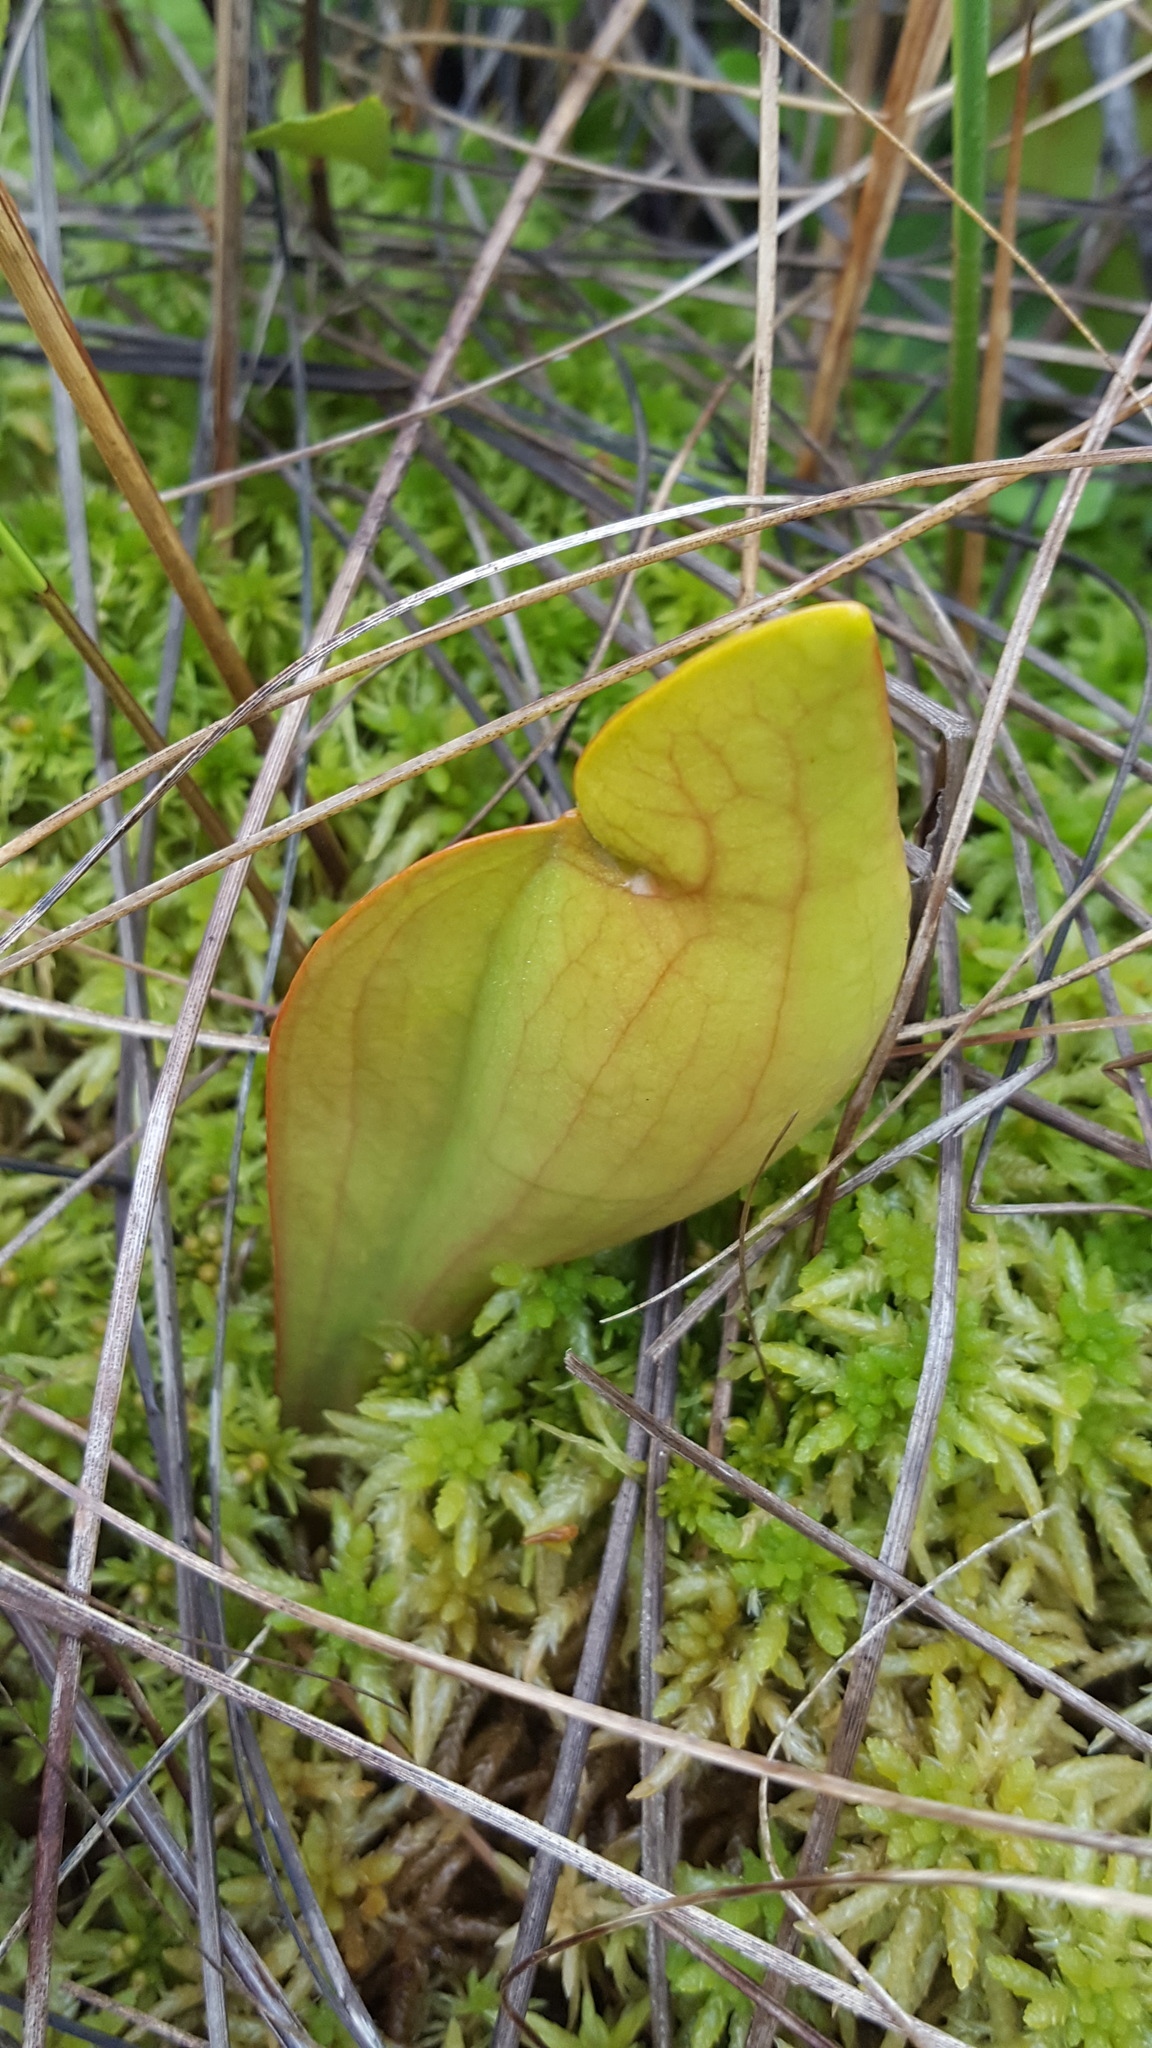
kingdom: Plantae
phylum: Tracheophyta
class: Magnoliopsida
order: Ericales
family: Sarraceniaceae
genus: Sarracenia
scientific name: Sarracenia purpurea
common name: Pitcherplant
